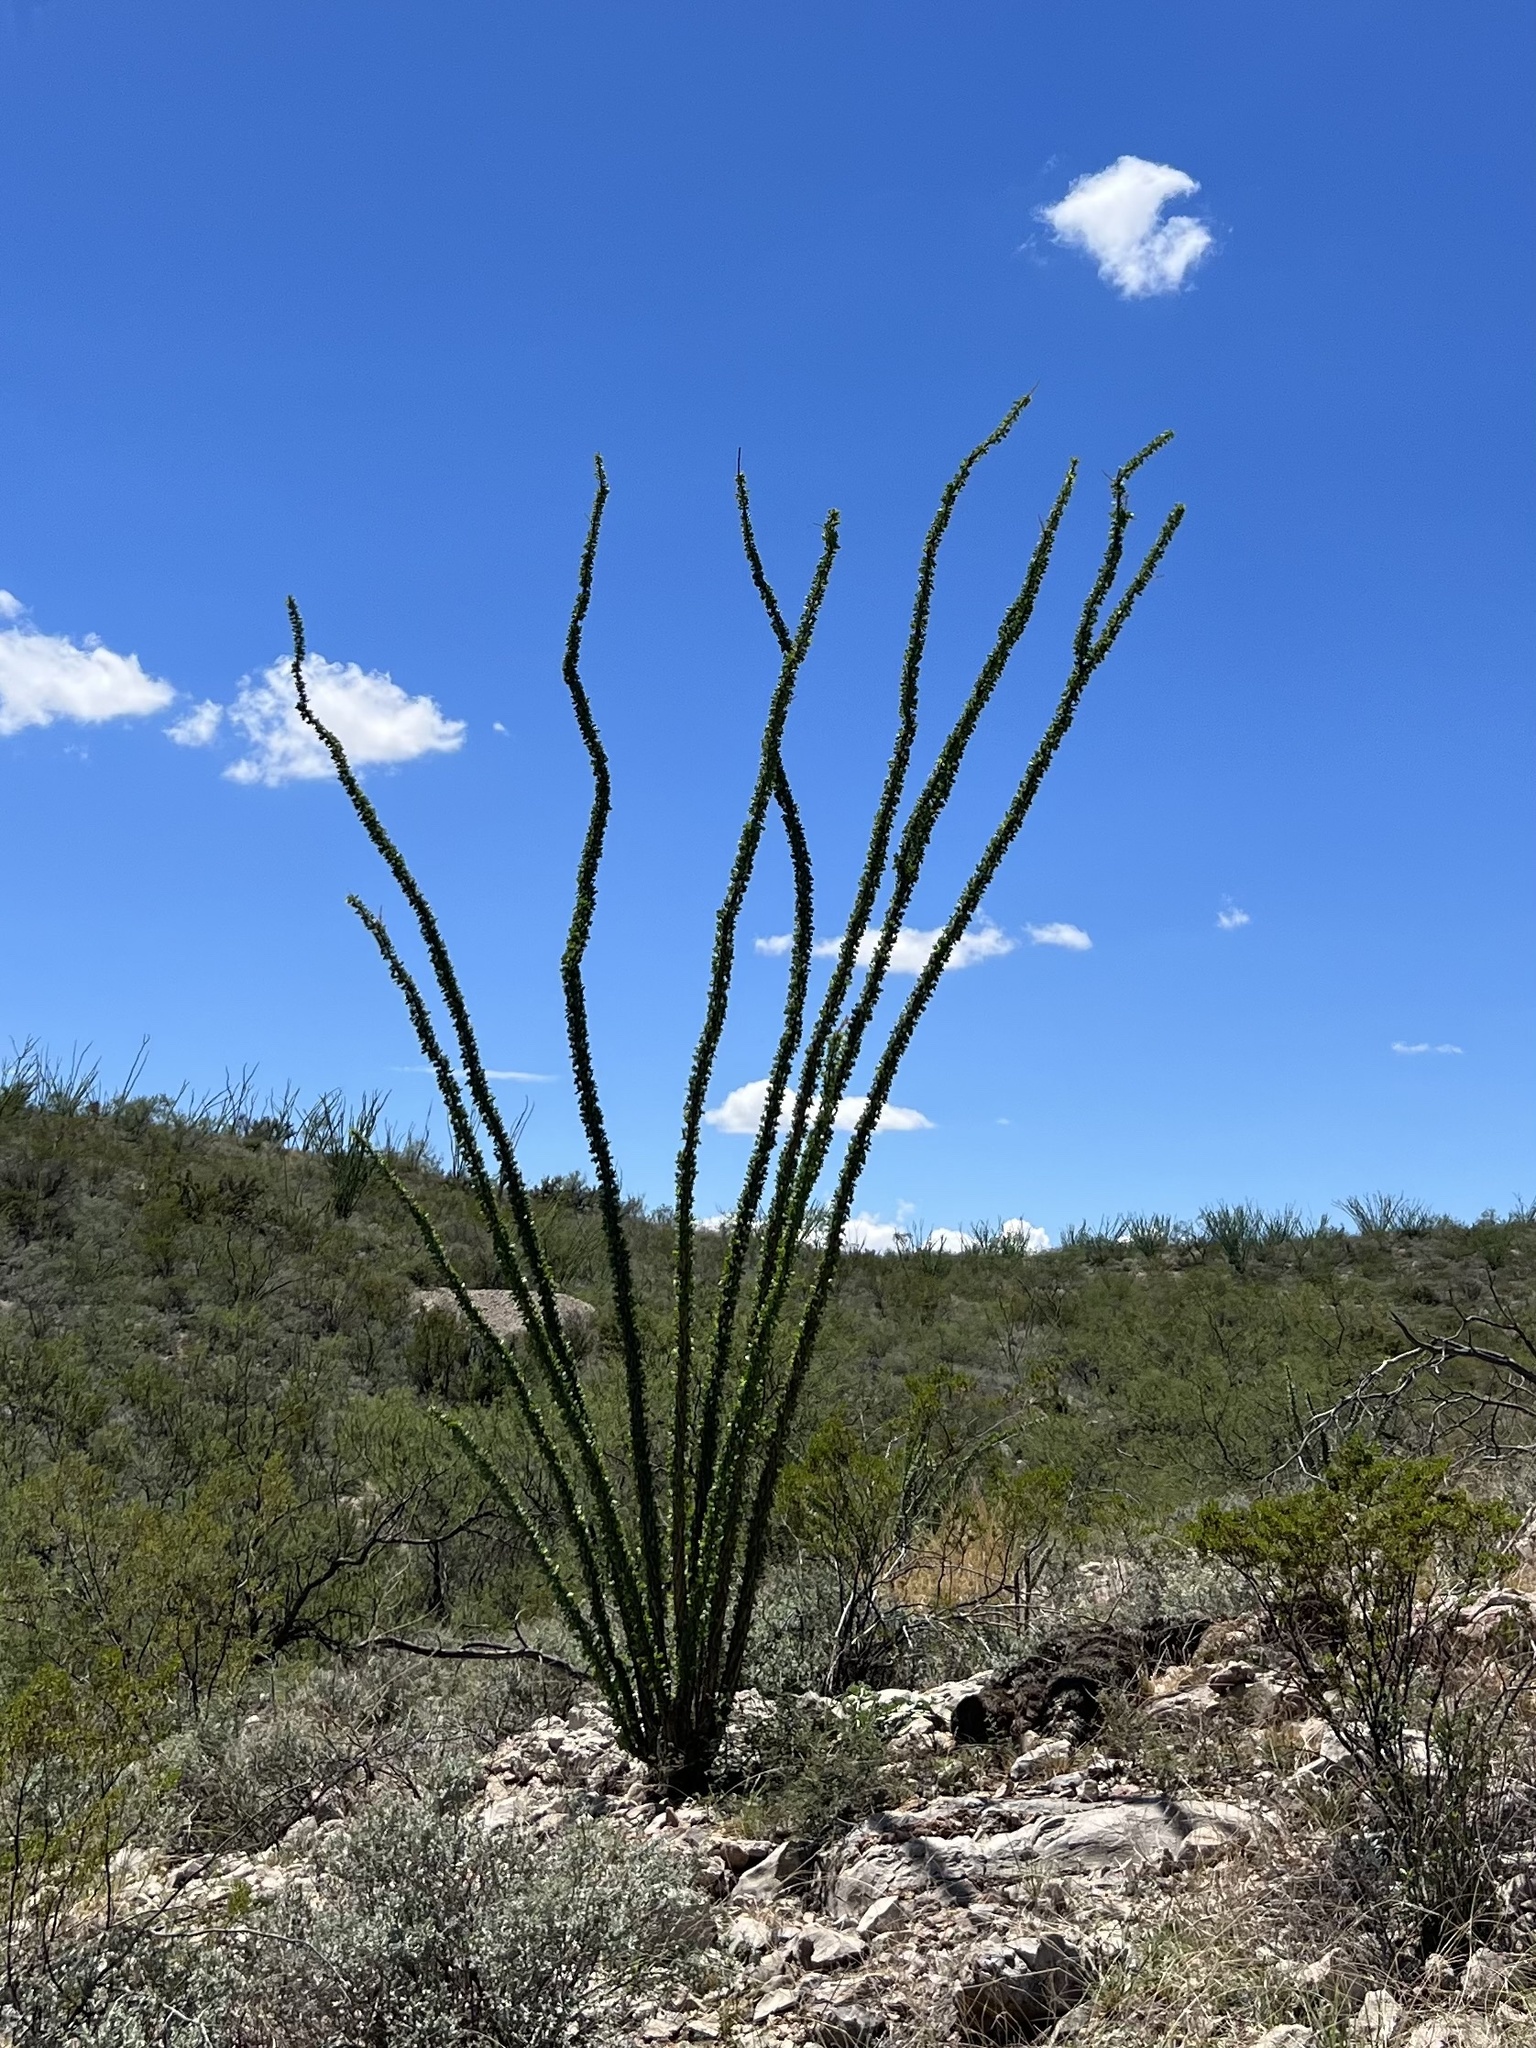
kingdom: Plantae
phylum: Tracheophyta
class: Magnoliopsida
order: Ericales
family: Fouquieriaceae
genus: Fouquieria
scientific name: Fouquieria splendens
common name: Vine-cactus
